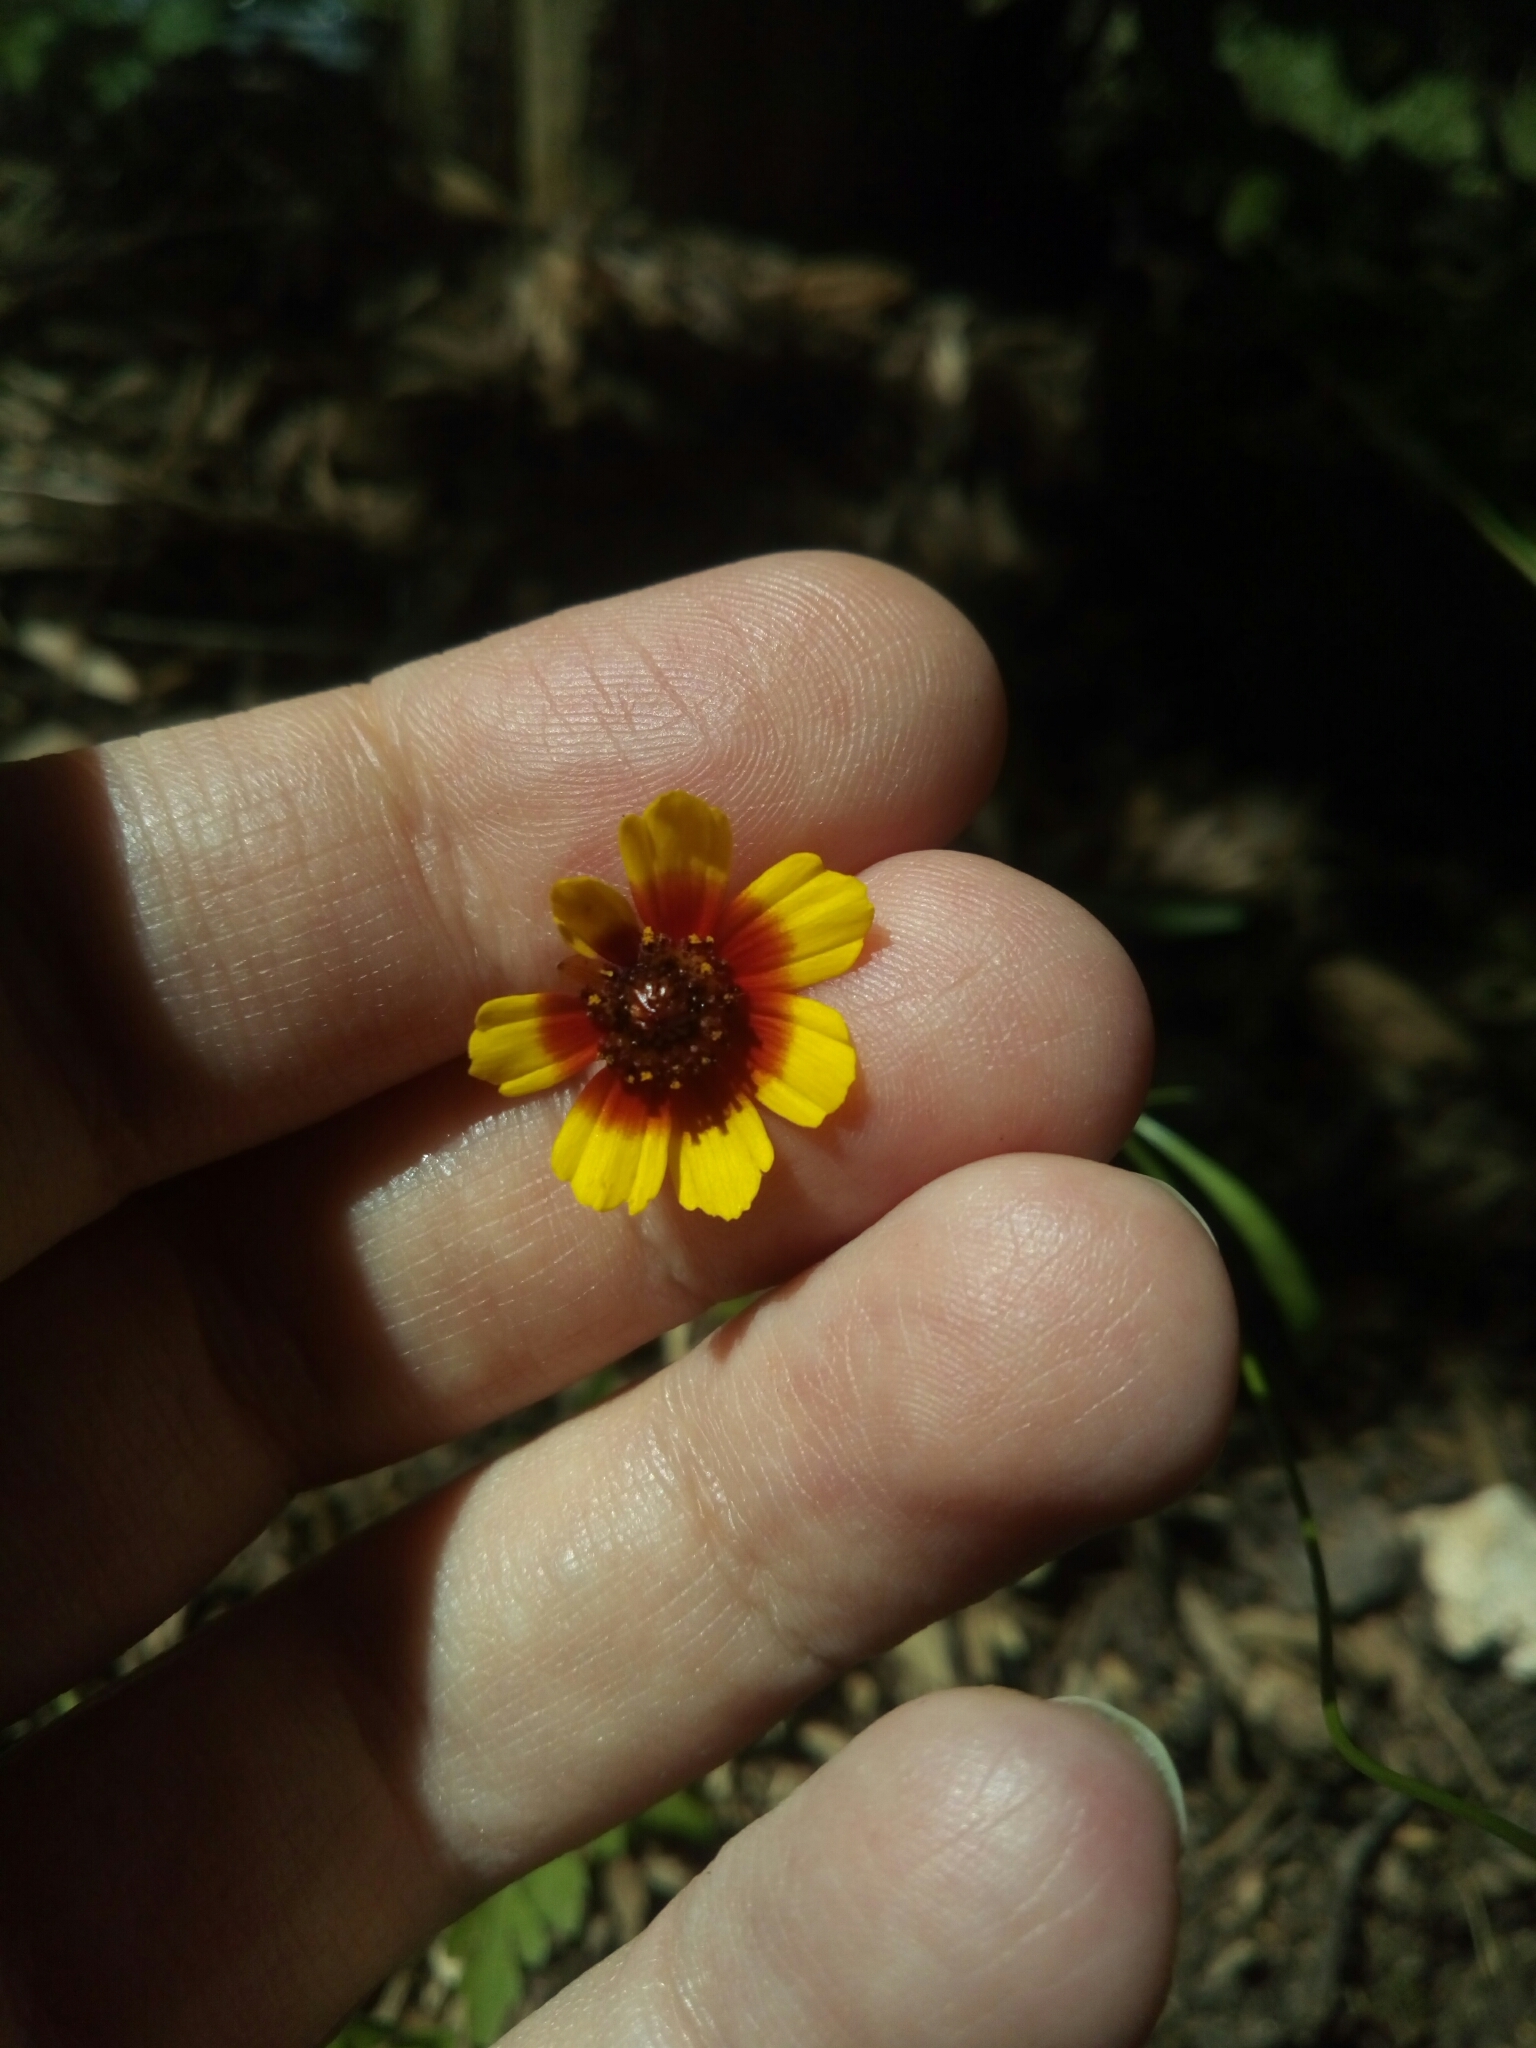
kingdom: Plantae
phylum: Tracheophyta
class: Magnoliopsida
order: Asterales
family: Asteraceae
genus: Coreopsis
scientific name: Coreopsis tinctoria
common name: Garden tickseed
